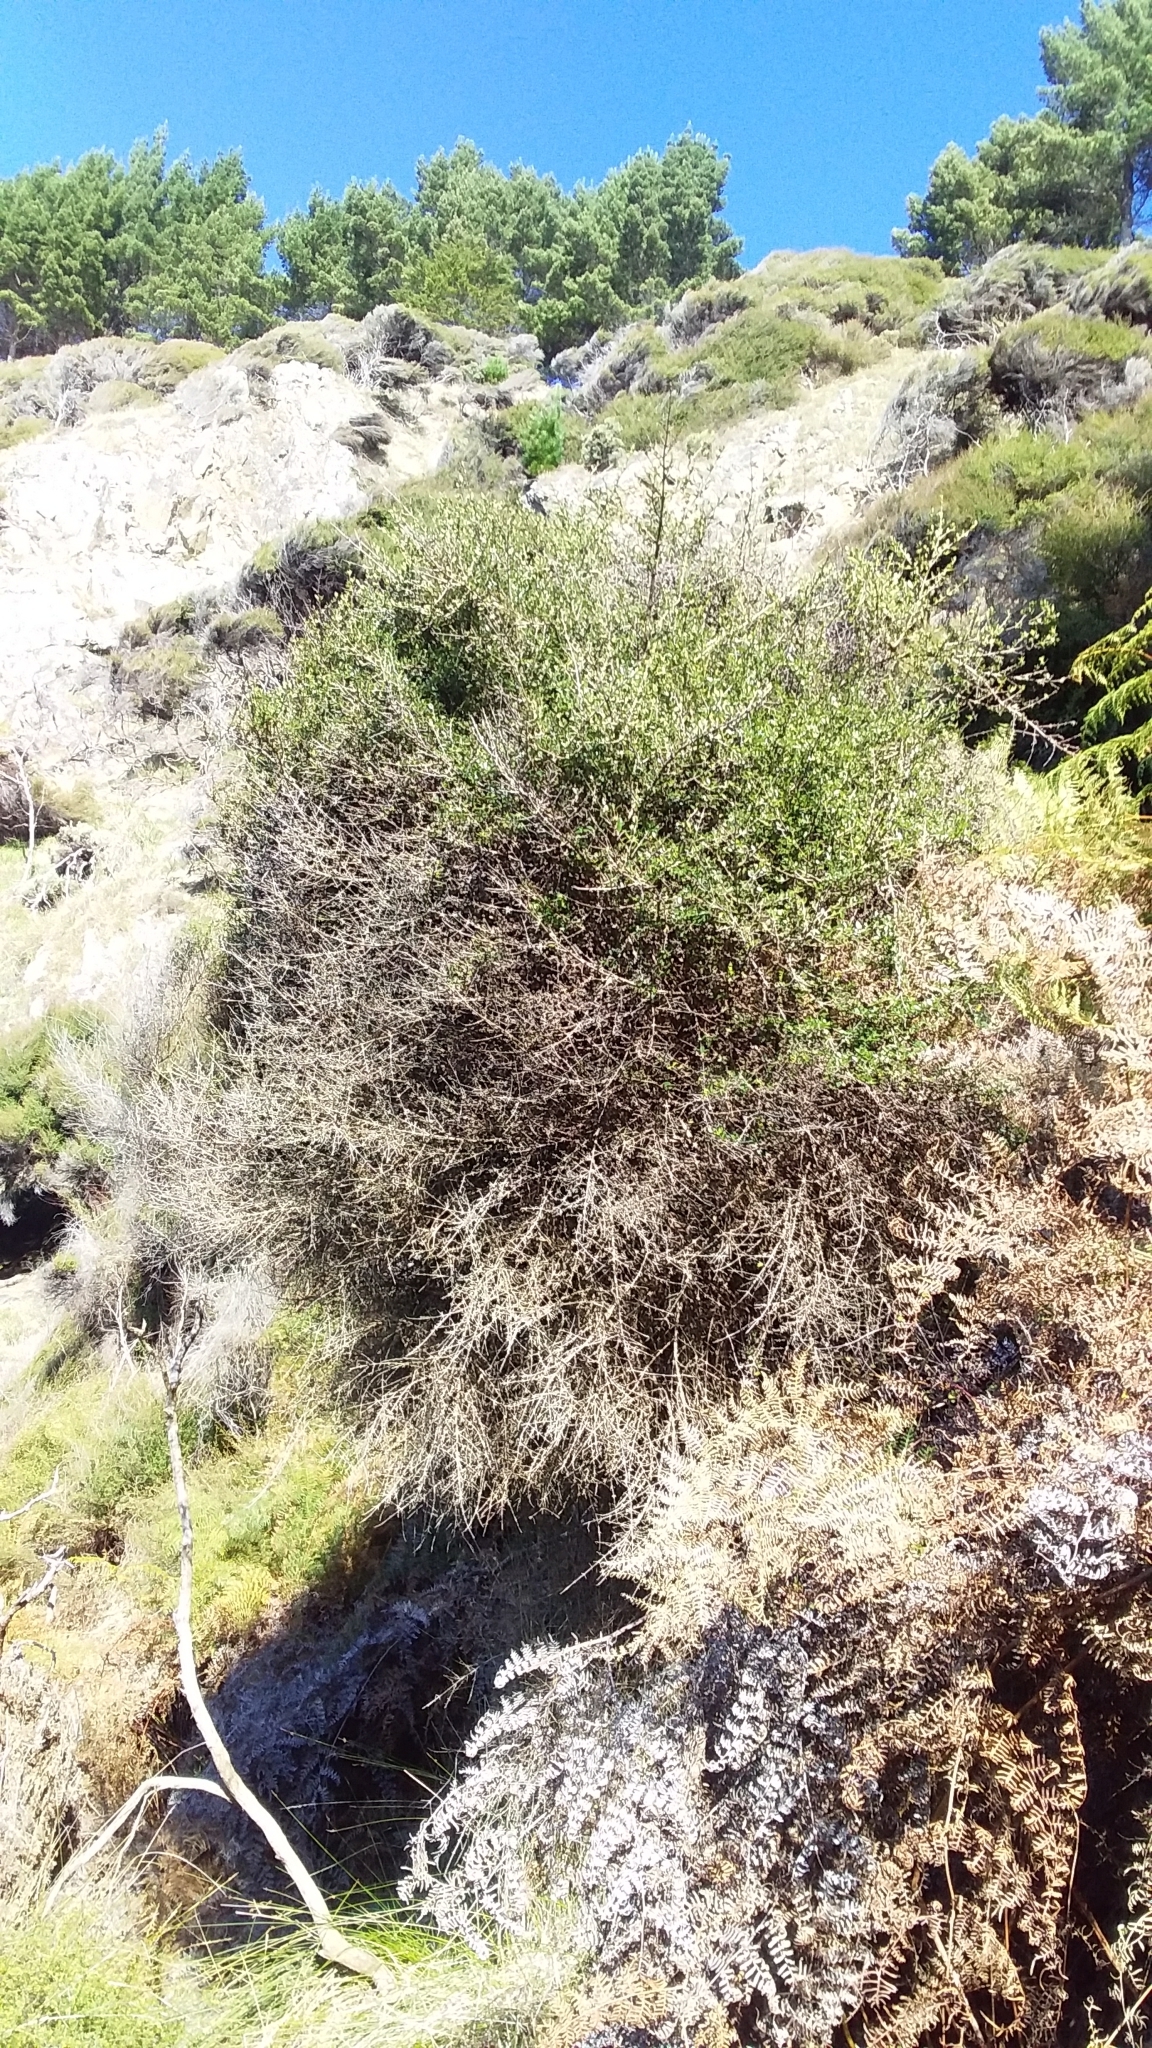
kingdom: Plantae
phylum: Tracheophyta
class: Magnoliopsida
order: Gentianales
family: Rubiaceae
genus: Coprosma
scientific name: Coprosma propinqua
